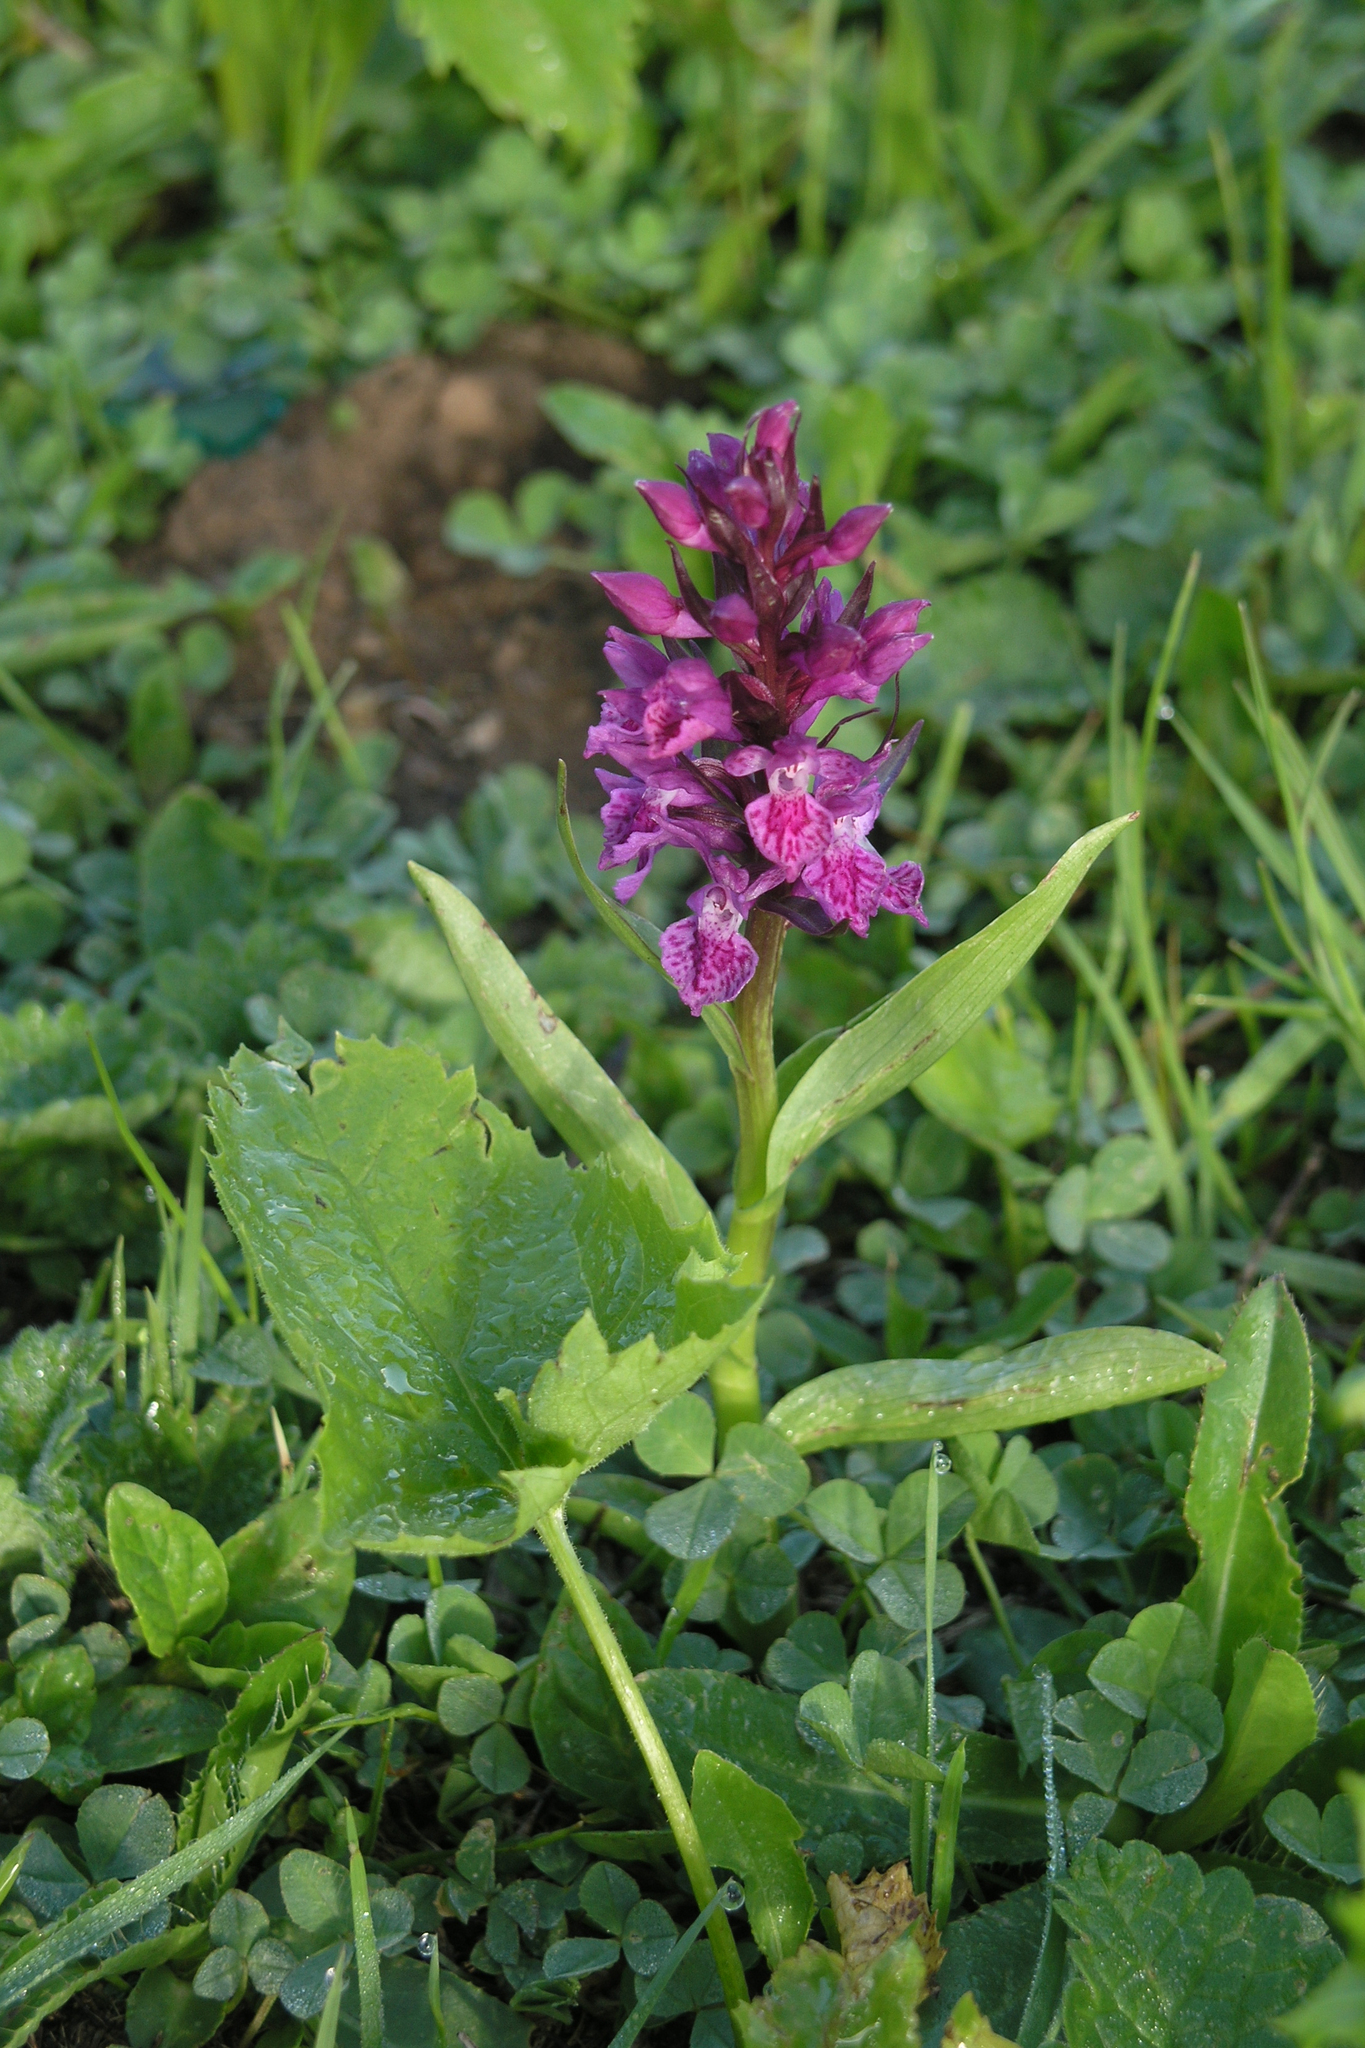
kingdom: Plantae
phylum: Tracheophyta
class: Liliopsida
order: Asparagales
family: Orchidaceae
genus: Dactylorhiza
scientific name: Dactylorhiza euxina
